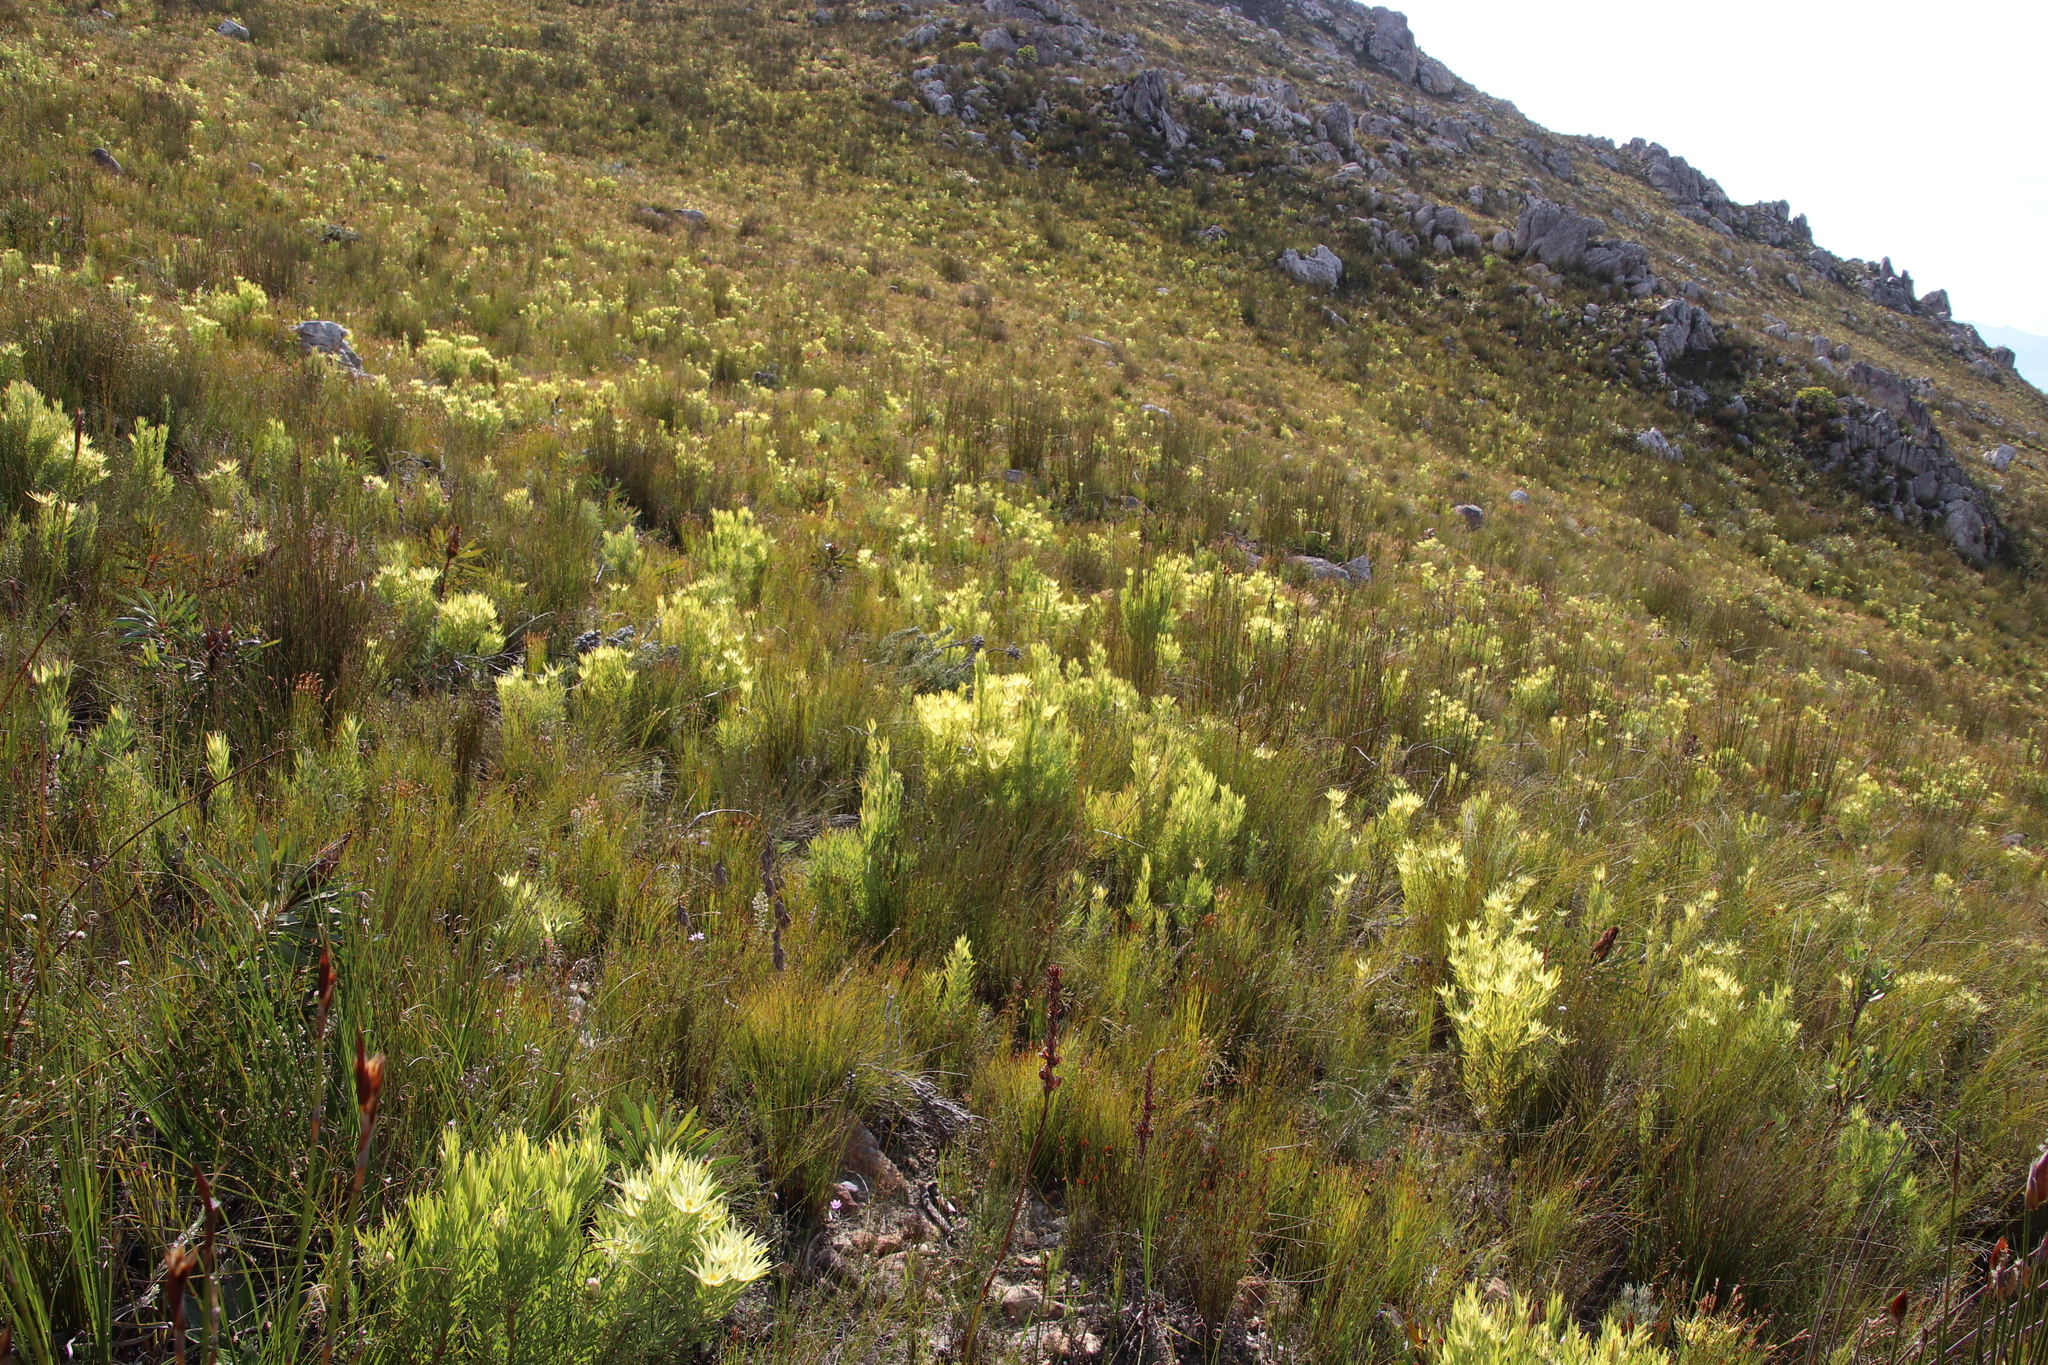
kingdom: Plantae
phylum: Tracheophyta
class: Magnoliopsida
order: Proteales
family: Proteaceae
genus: Leucadendron
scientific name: Leucadendron xanthoconus
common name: Sickle-leaf conebush
